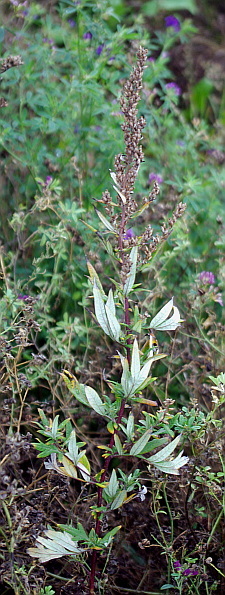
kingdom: Plantae
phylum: Tracheophyta
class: Magnoliopsida
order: Asterales
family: Asteraceae
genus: Artemisia
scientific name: Artemisia vulgaris
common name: Mugwort
